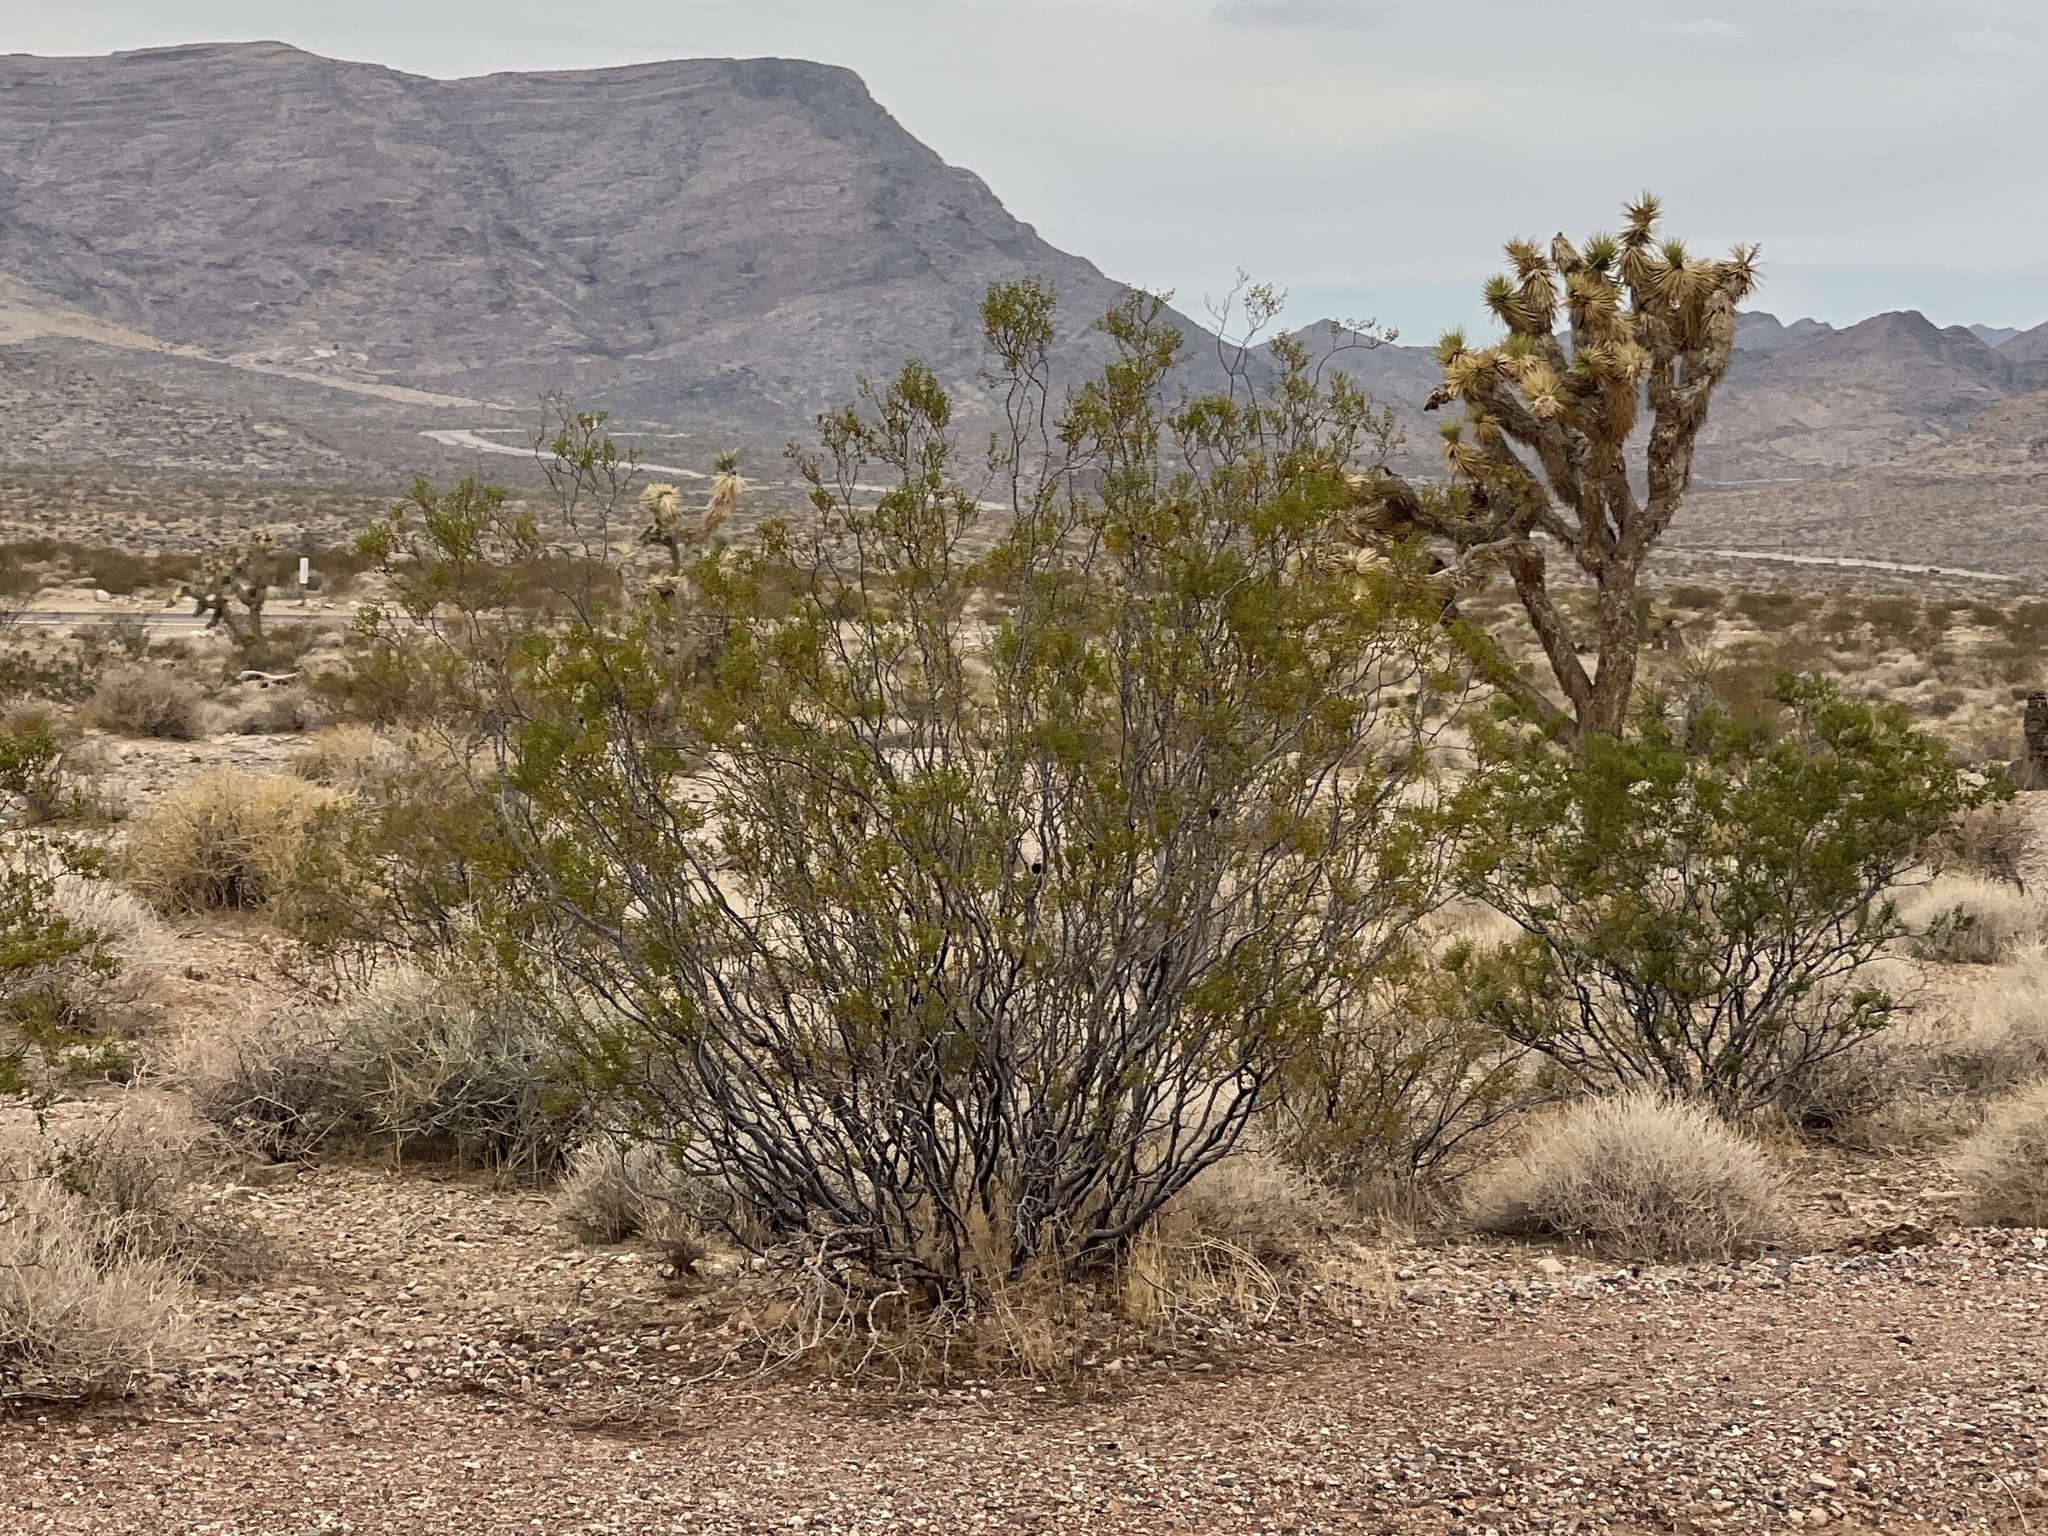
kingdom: Plantae
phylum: Tracheophyta
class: Magnoliopsida
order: Zygophyllales
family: Zygophyllaceae
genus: Larrea
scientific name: Larrea tridentata
